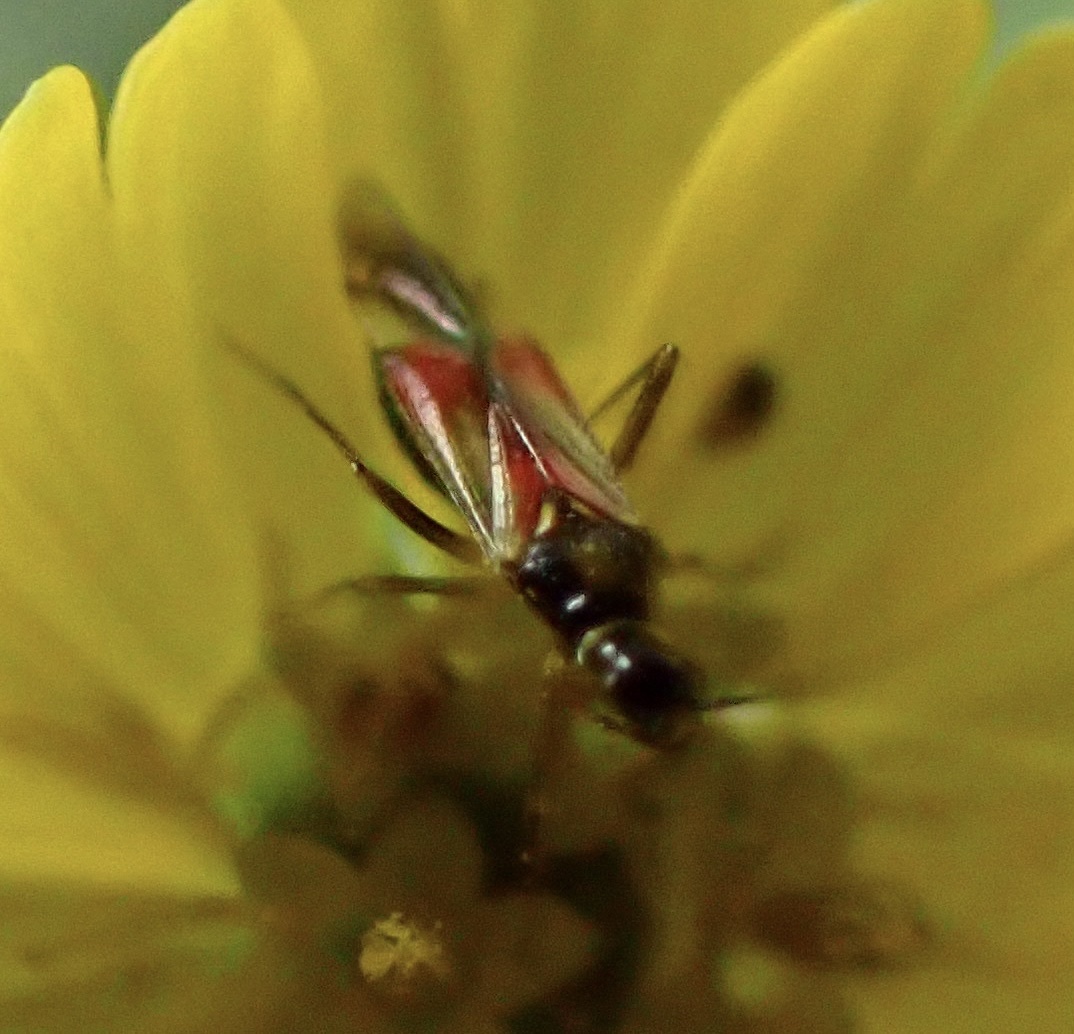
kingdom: Animalia
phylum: Arthropoda
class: Insecta
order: Hemiptera
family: Miridae
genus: Tupiocoris
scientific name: Tupiocoris californicus
